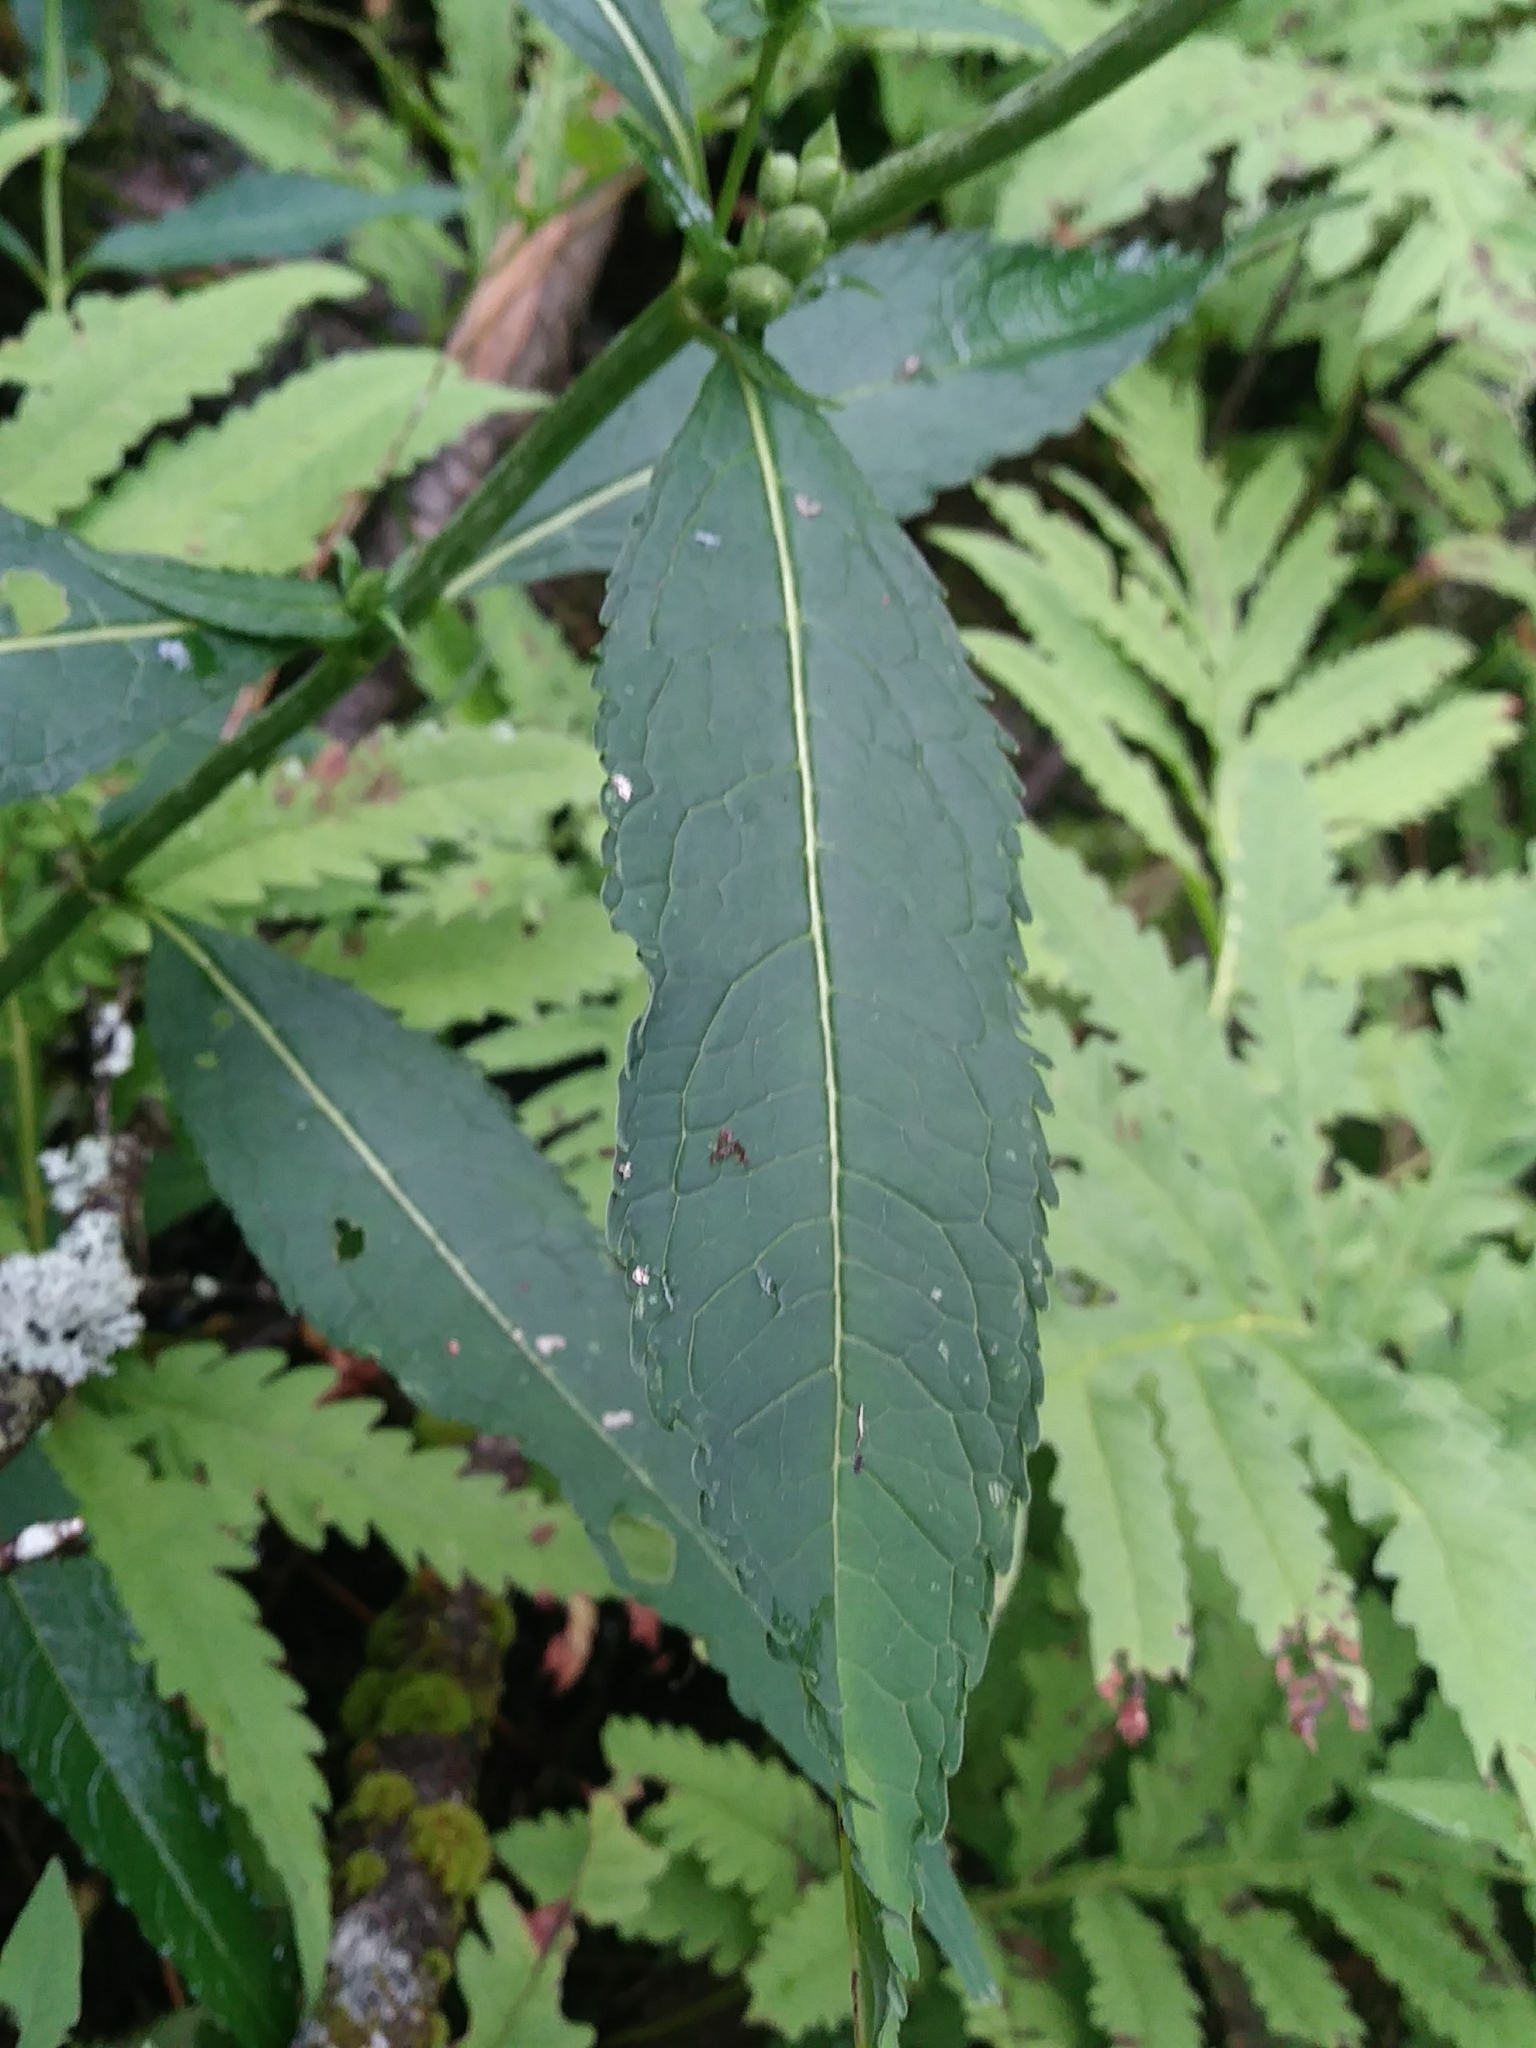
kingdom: Plantae
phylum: Tracheophyta
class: Magnoliopsida
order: Lamiales
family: Plantaginaceae
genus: Chelone
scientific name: Chelone glabra
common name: Snakehead
